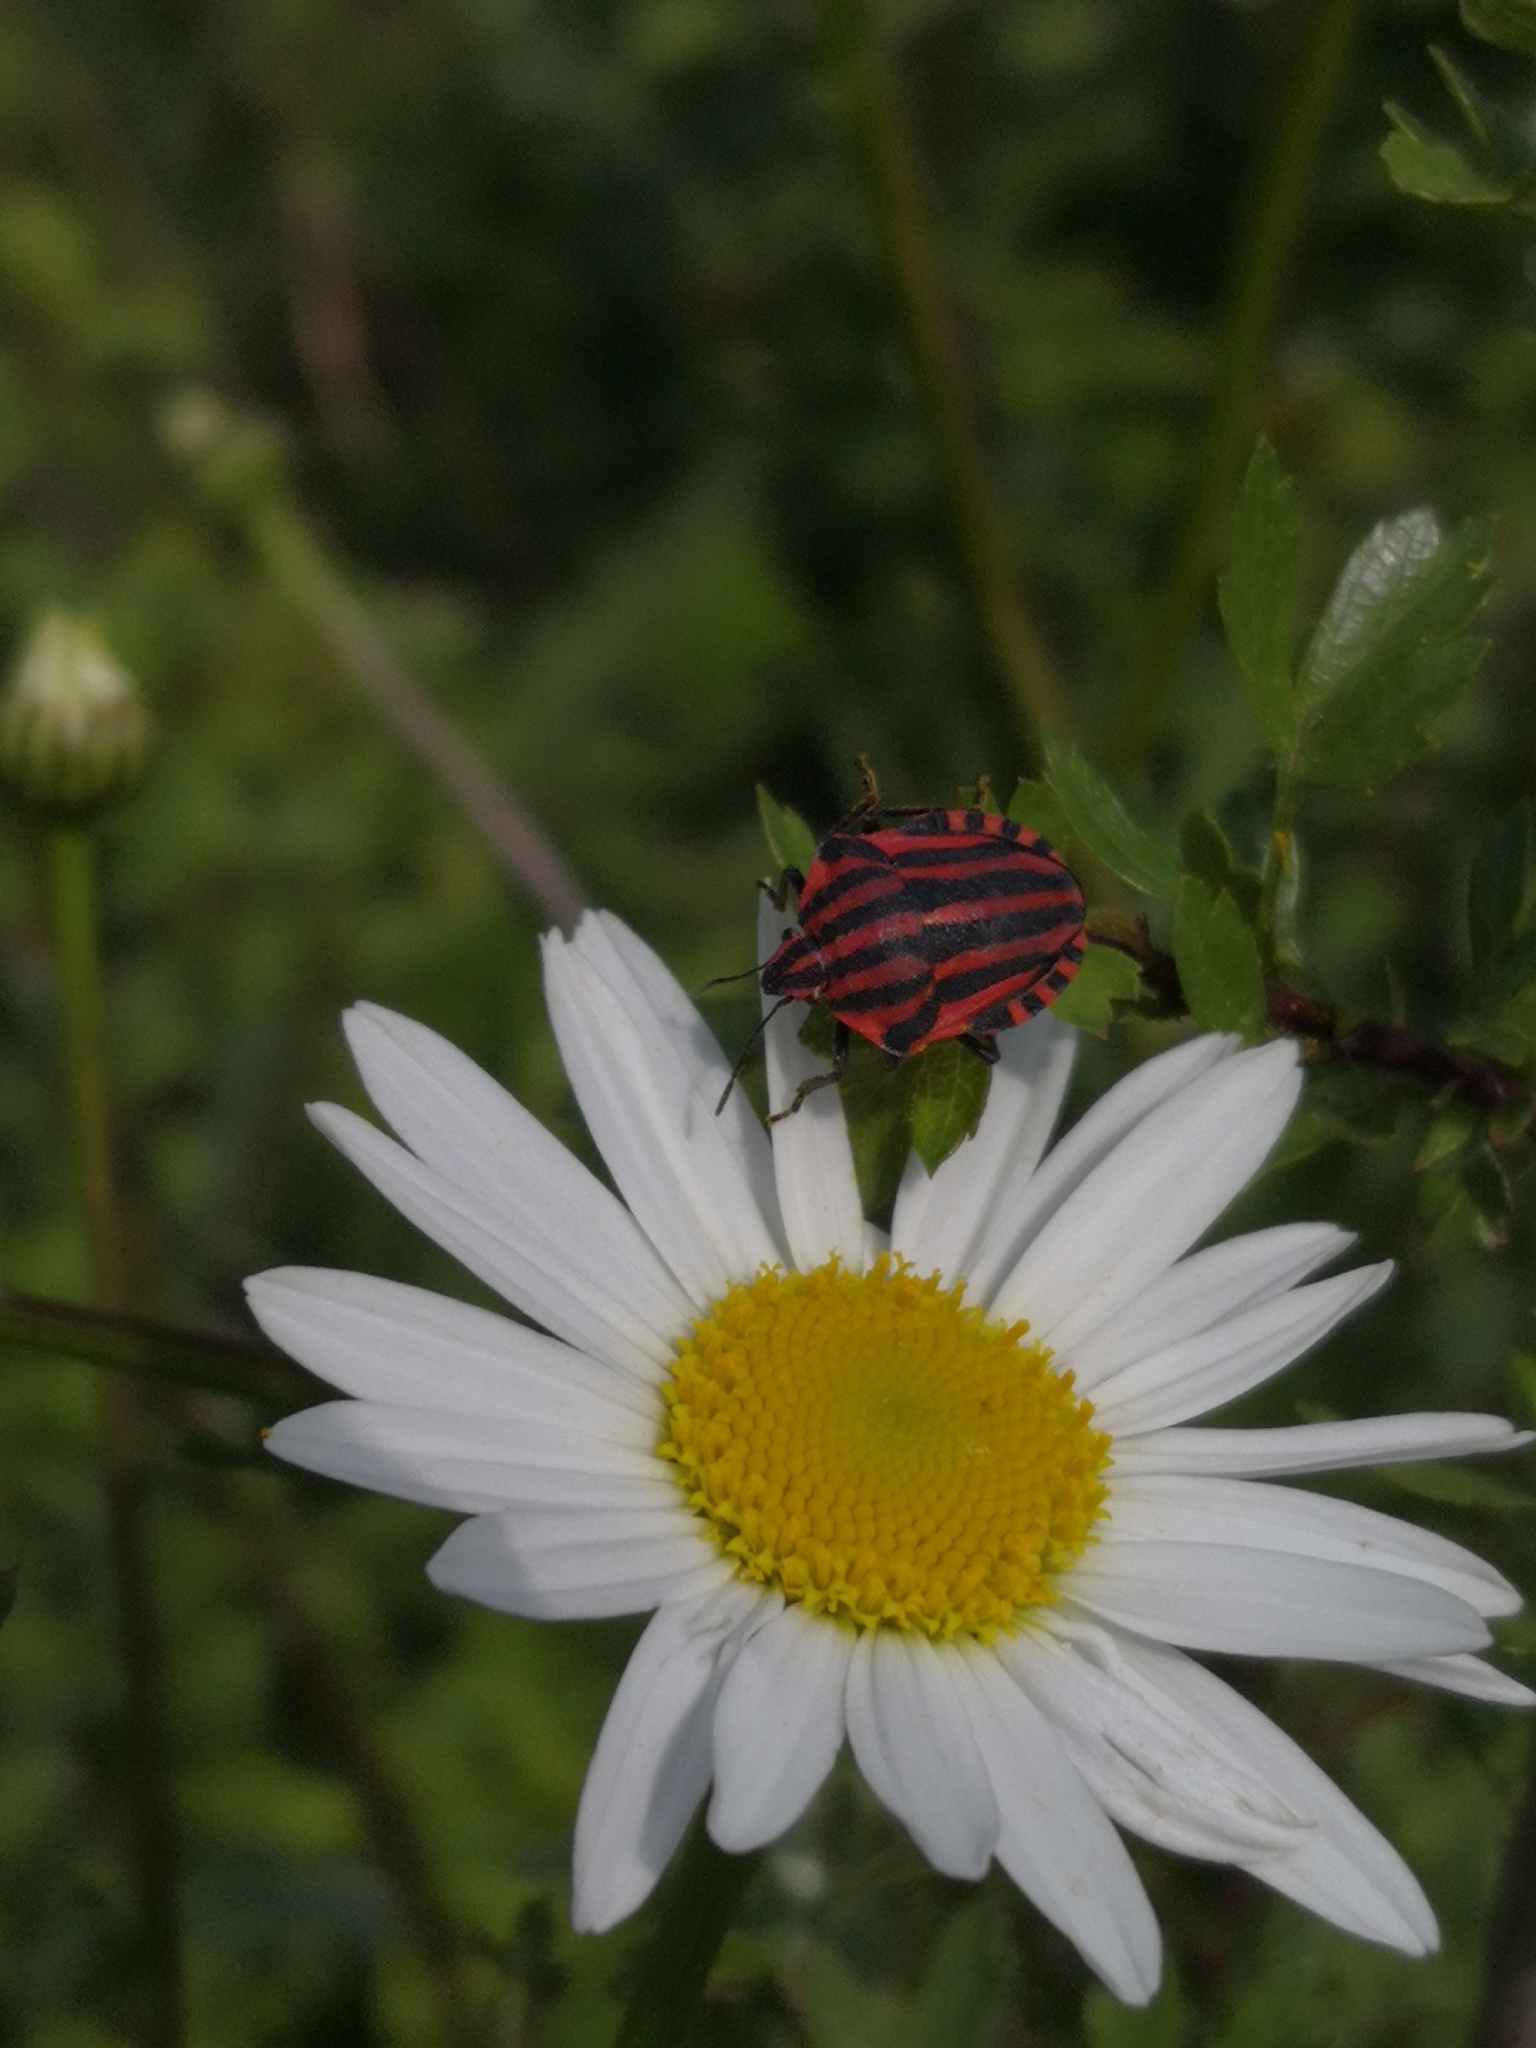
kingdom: Animalia
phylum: Arthropoda
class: Insecta
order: Hemiptera
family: Pentatomidae
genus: Graphosoma
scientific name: Graphosoma italicum
